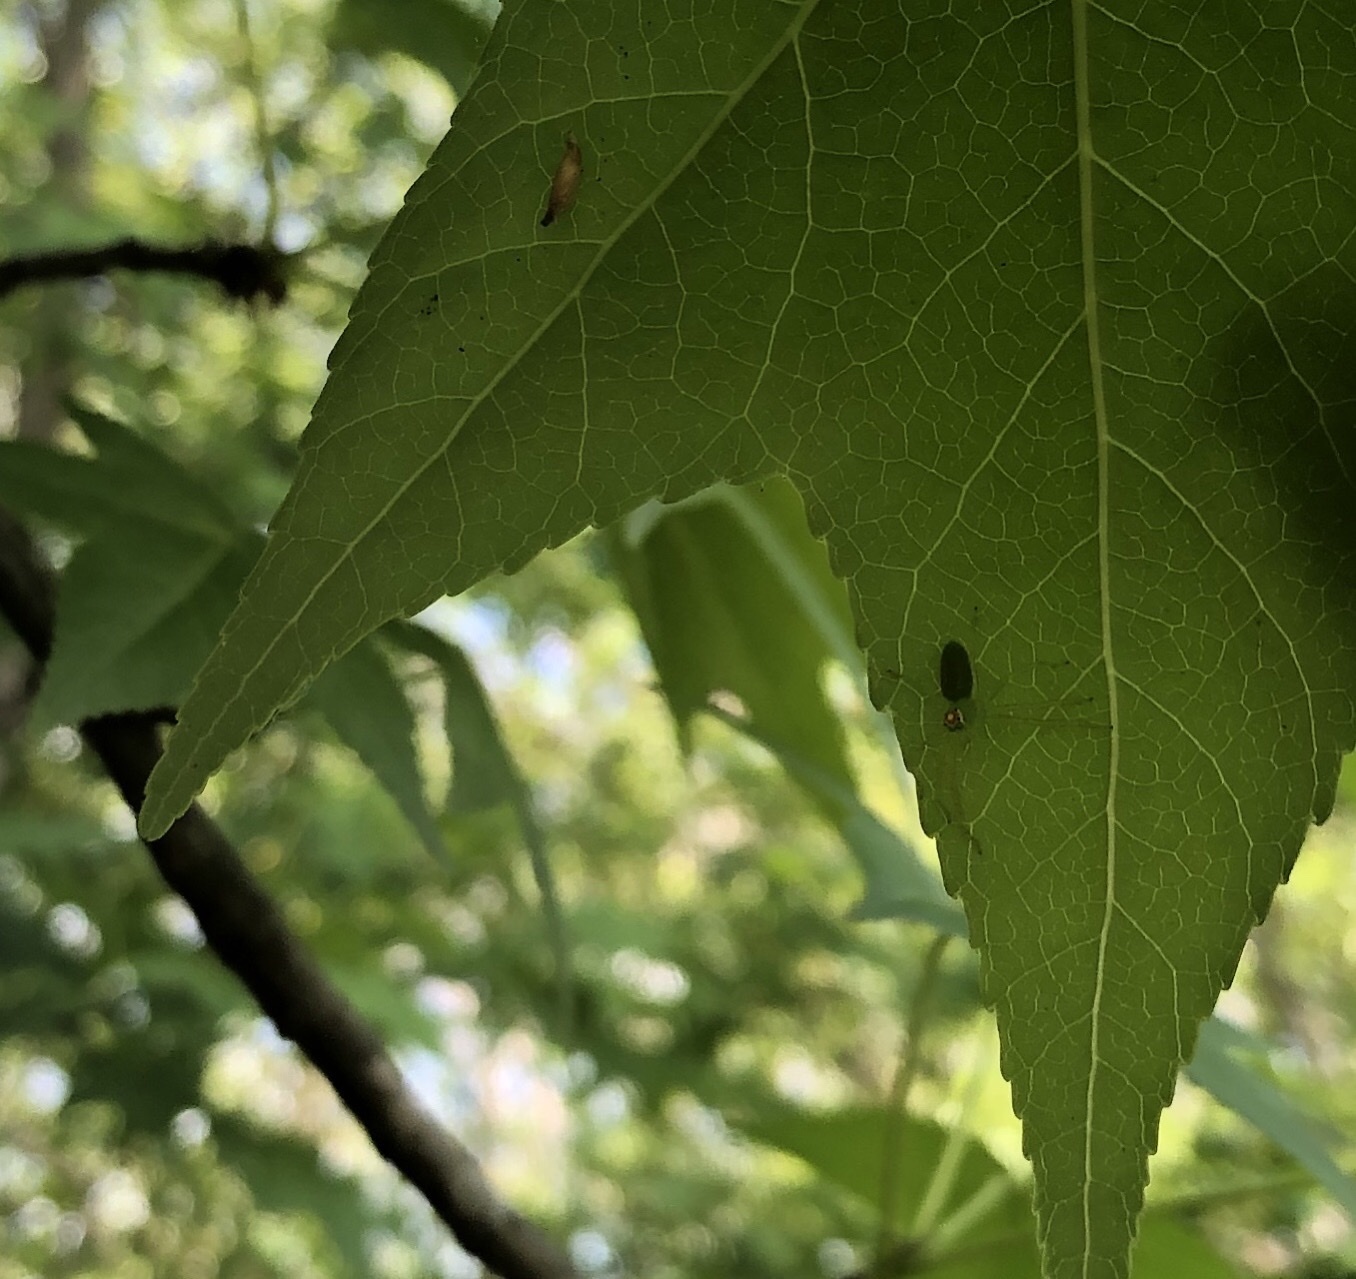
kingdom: Animalia
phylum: Arthropoda
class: Arachnida
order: Araneae
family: Salticidae
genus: Lyssomanes
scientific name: Lyssomanes viridis
